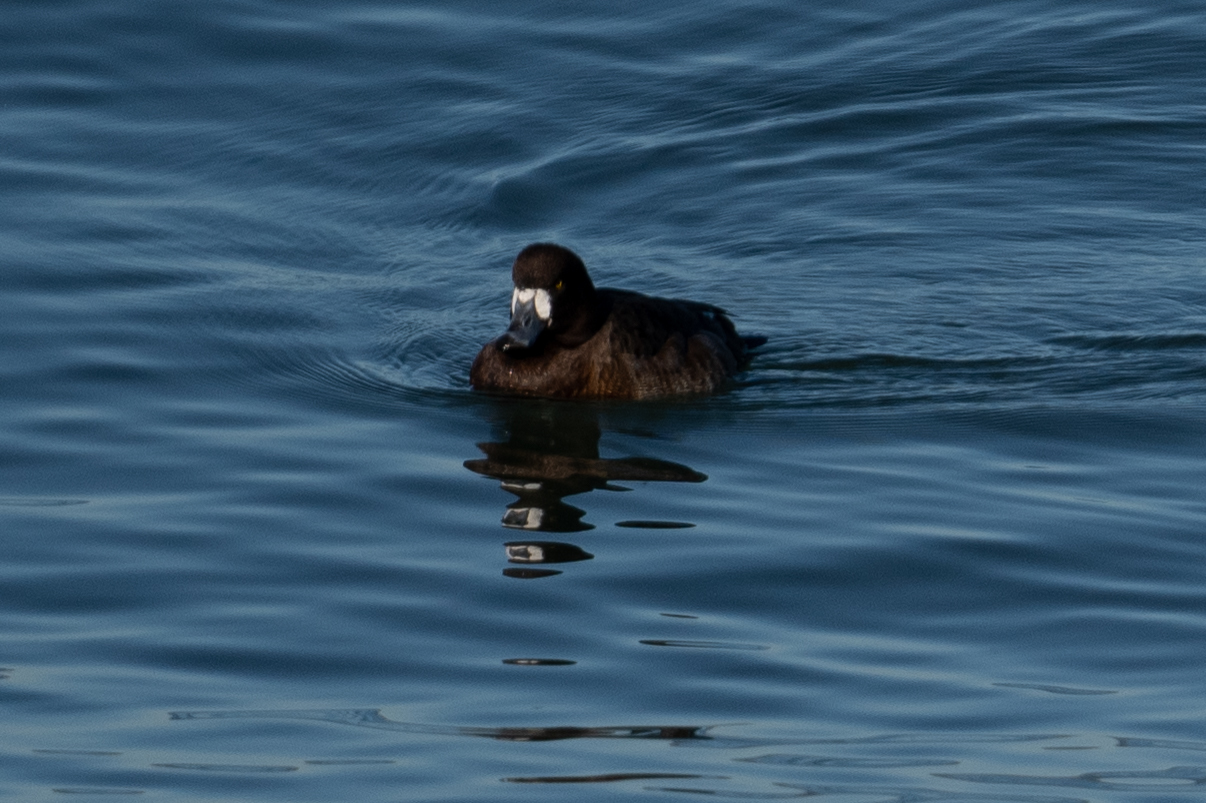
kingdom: Animalia
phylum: Chordata
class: Aves
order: Anseriformes
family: Anatidae
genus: Aythya
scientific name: Aythya marila
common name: Greater scaup
